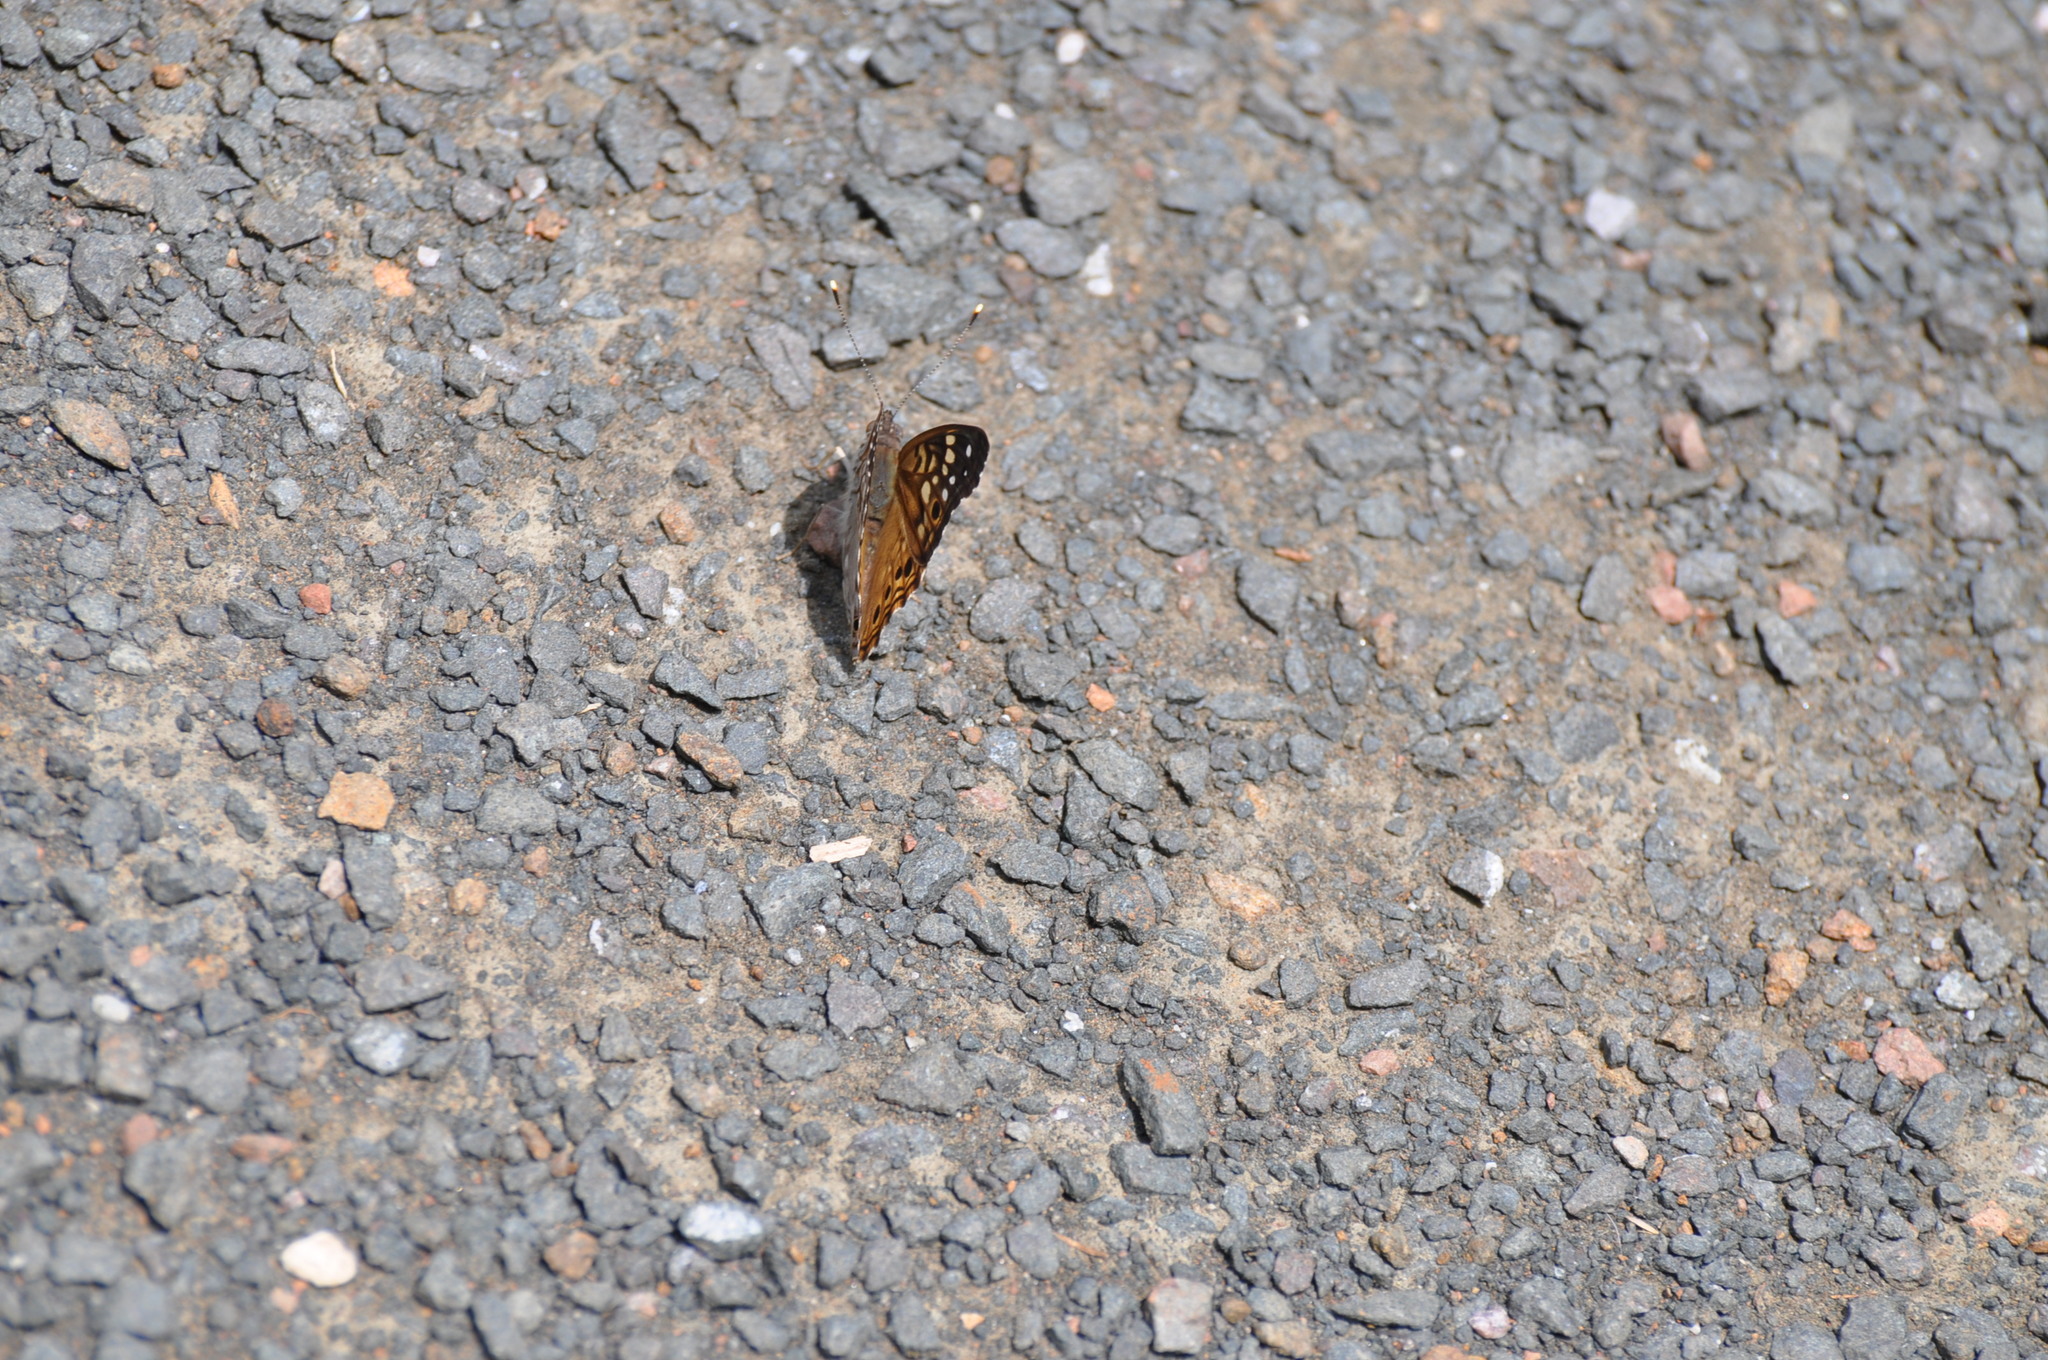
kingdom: Animalia
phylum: Arthropoda
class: Insecta
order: Lepidoptera
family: Nymphalidae
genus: Asterocampa
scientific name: Asterocampa celtis
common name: Hackberry emperor
